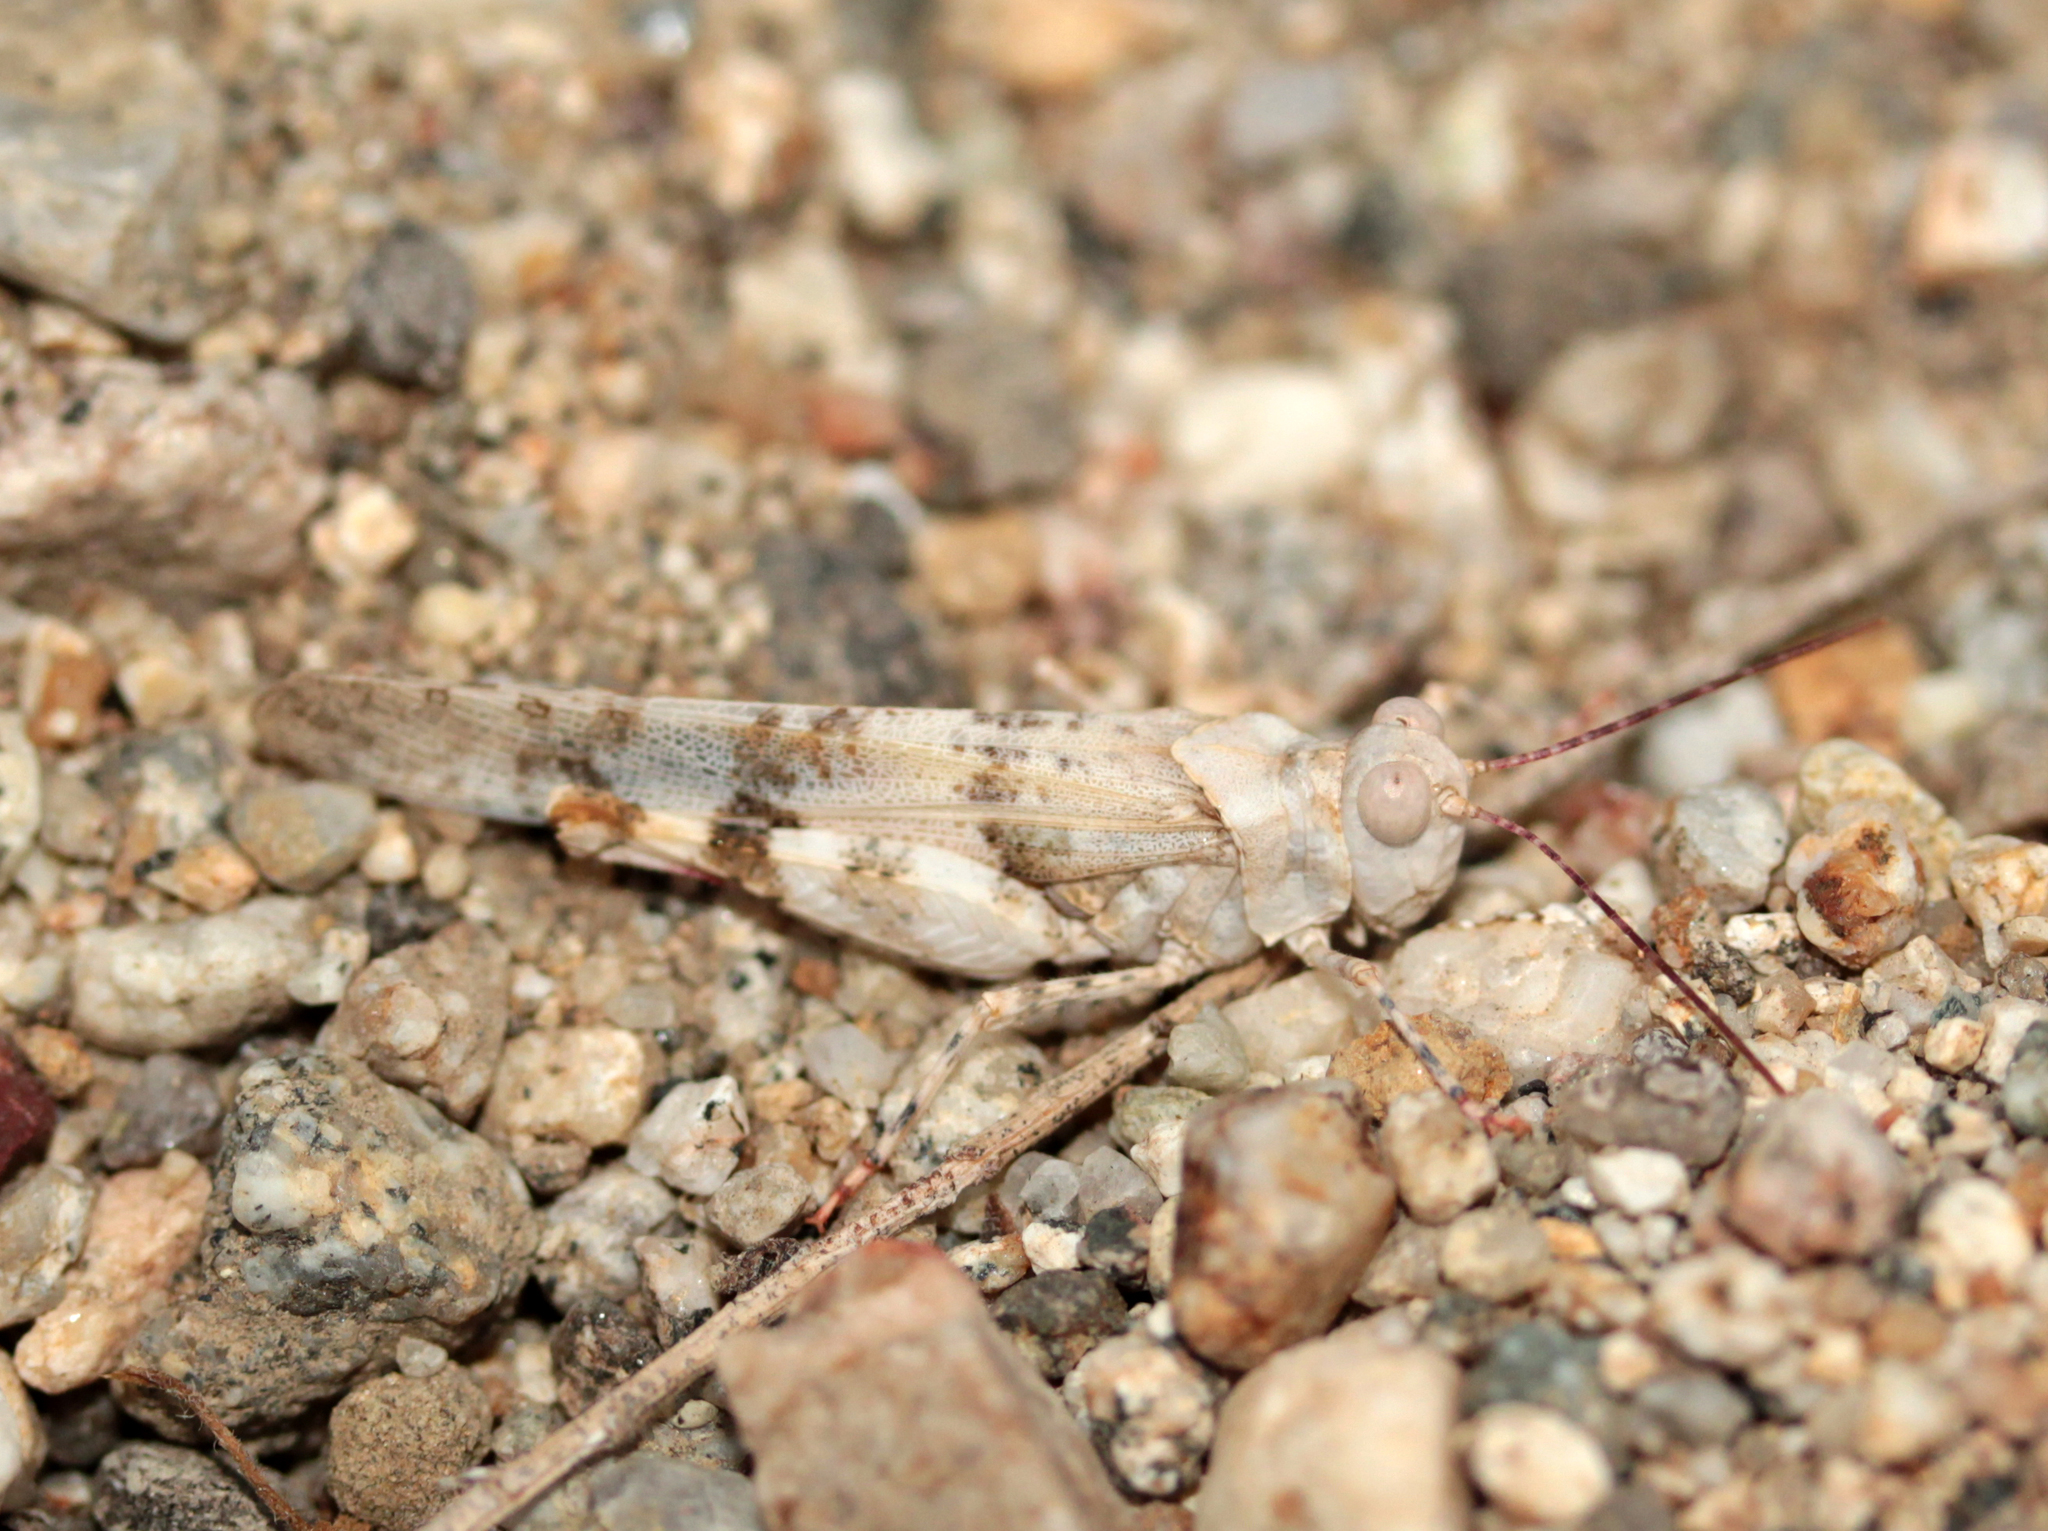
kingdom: Animalia
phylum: Arthropoda
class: Insecta
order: Orthoptera
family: Acrididae
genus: Trimerotropis
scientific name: Trimerotropis californica
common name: California band-winged grasshopper
